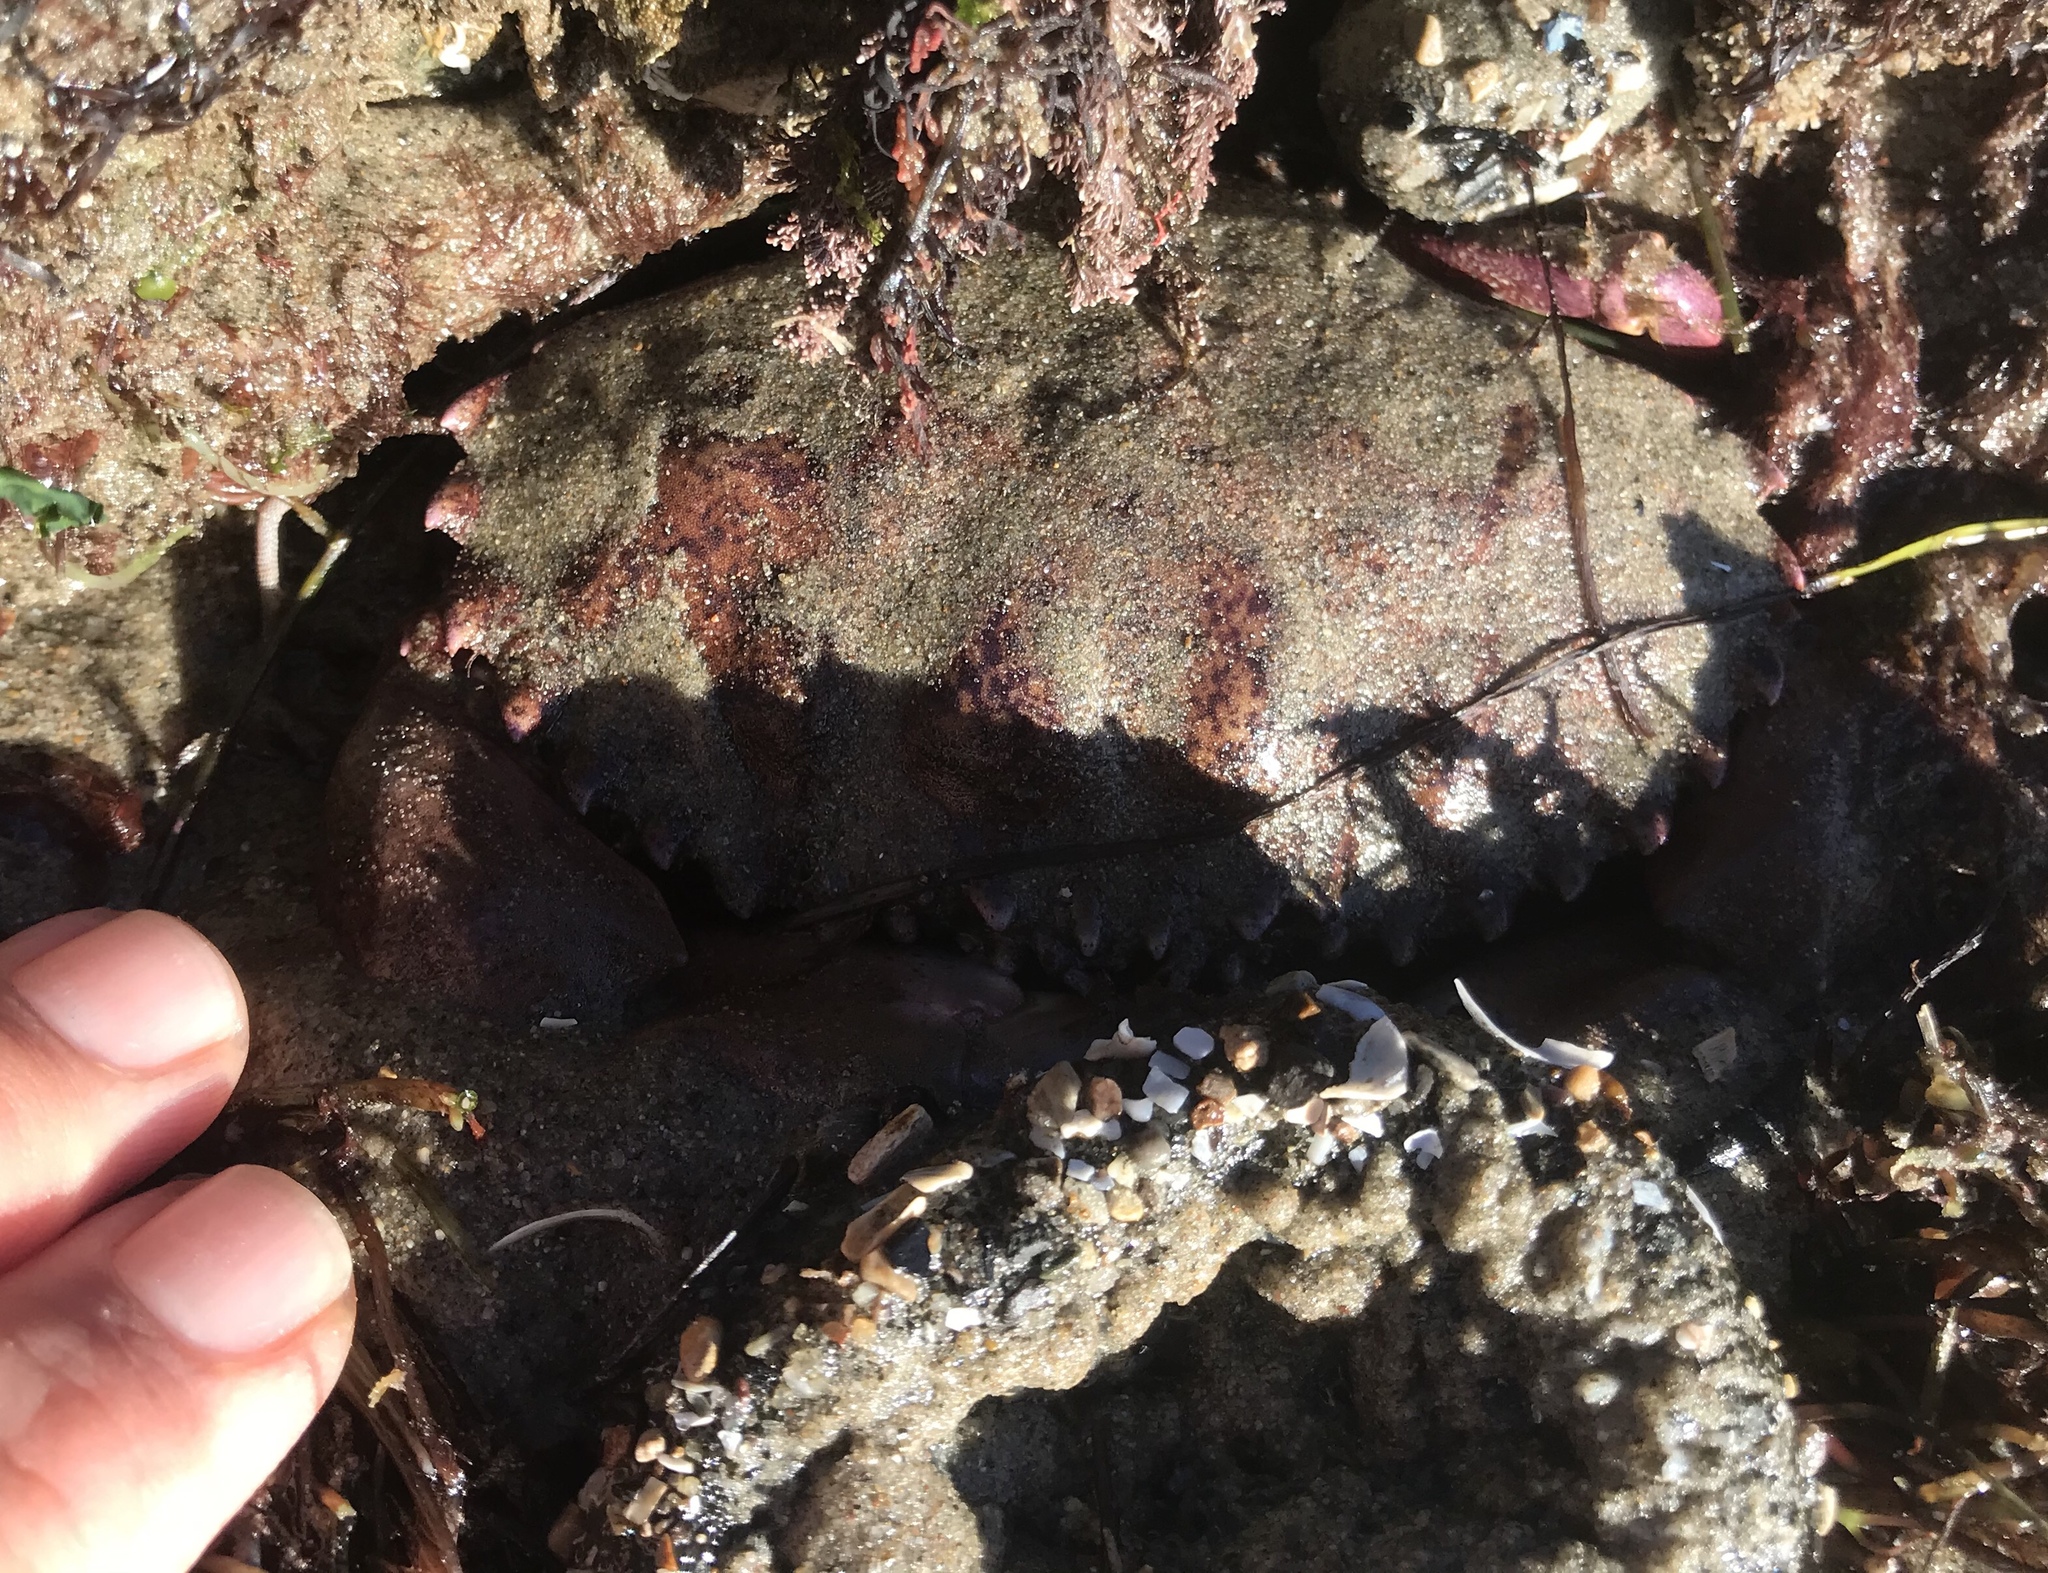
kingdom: Animalia
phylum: Arthropoda
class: Malacostraca
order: Decapoda
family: Cancridae
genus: Romaleon
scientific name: Romaleon antennarium
